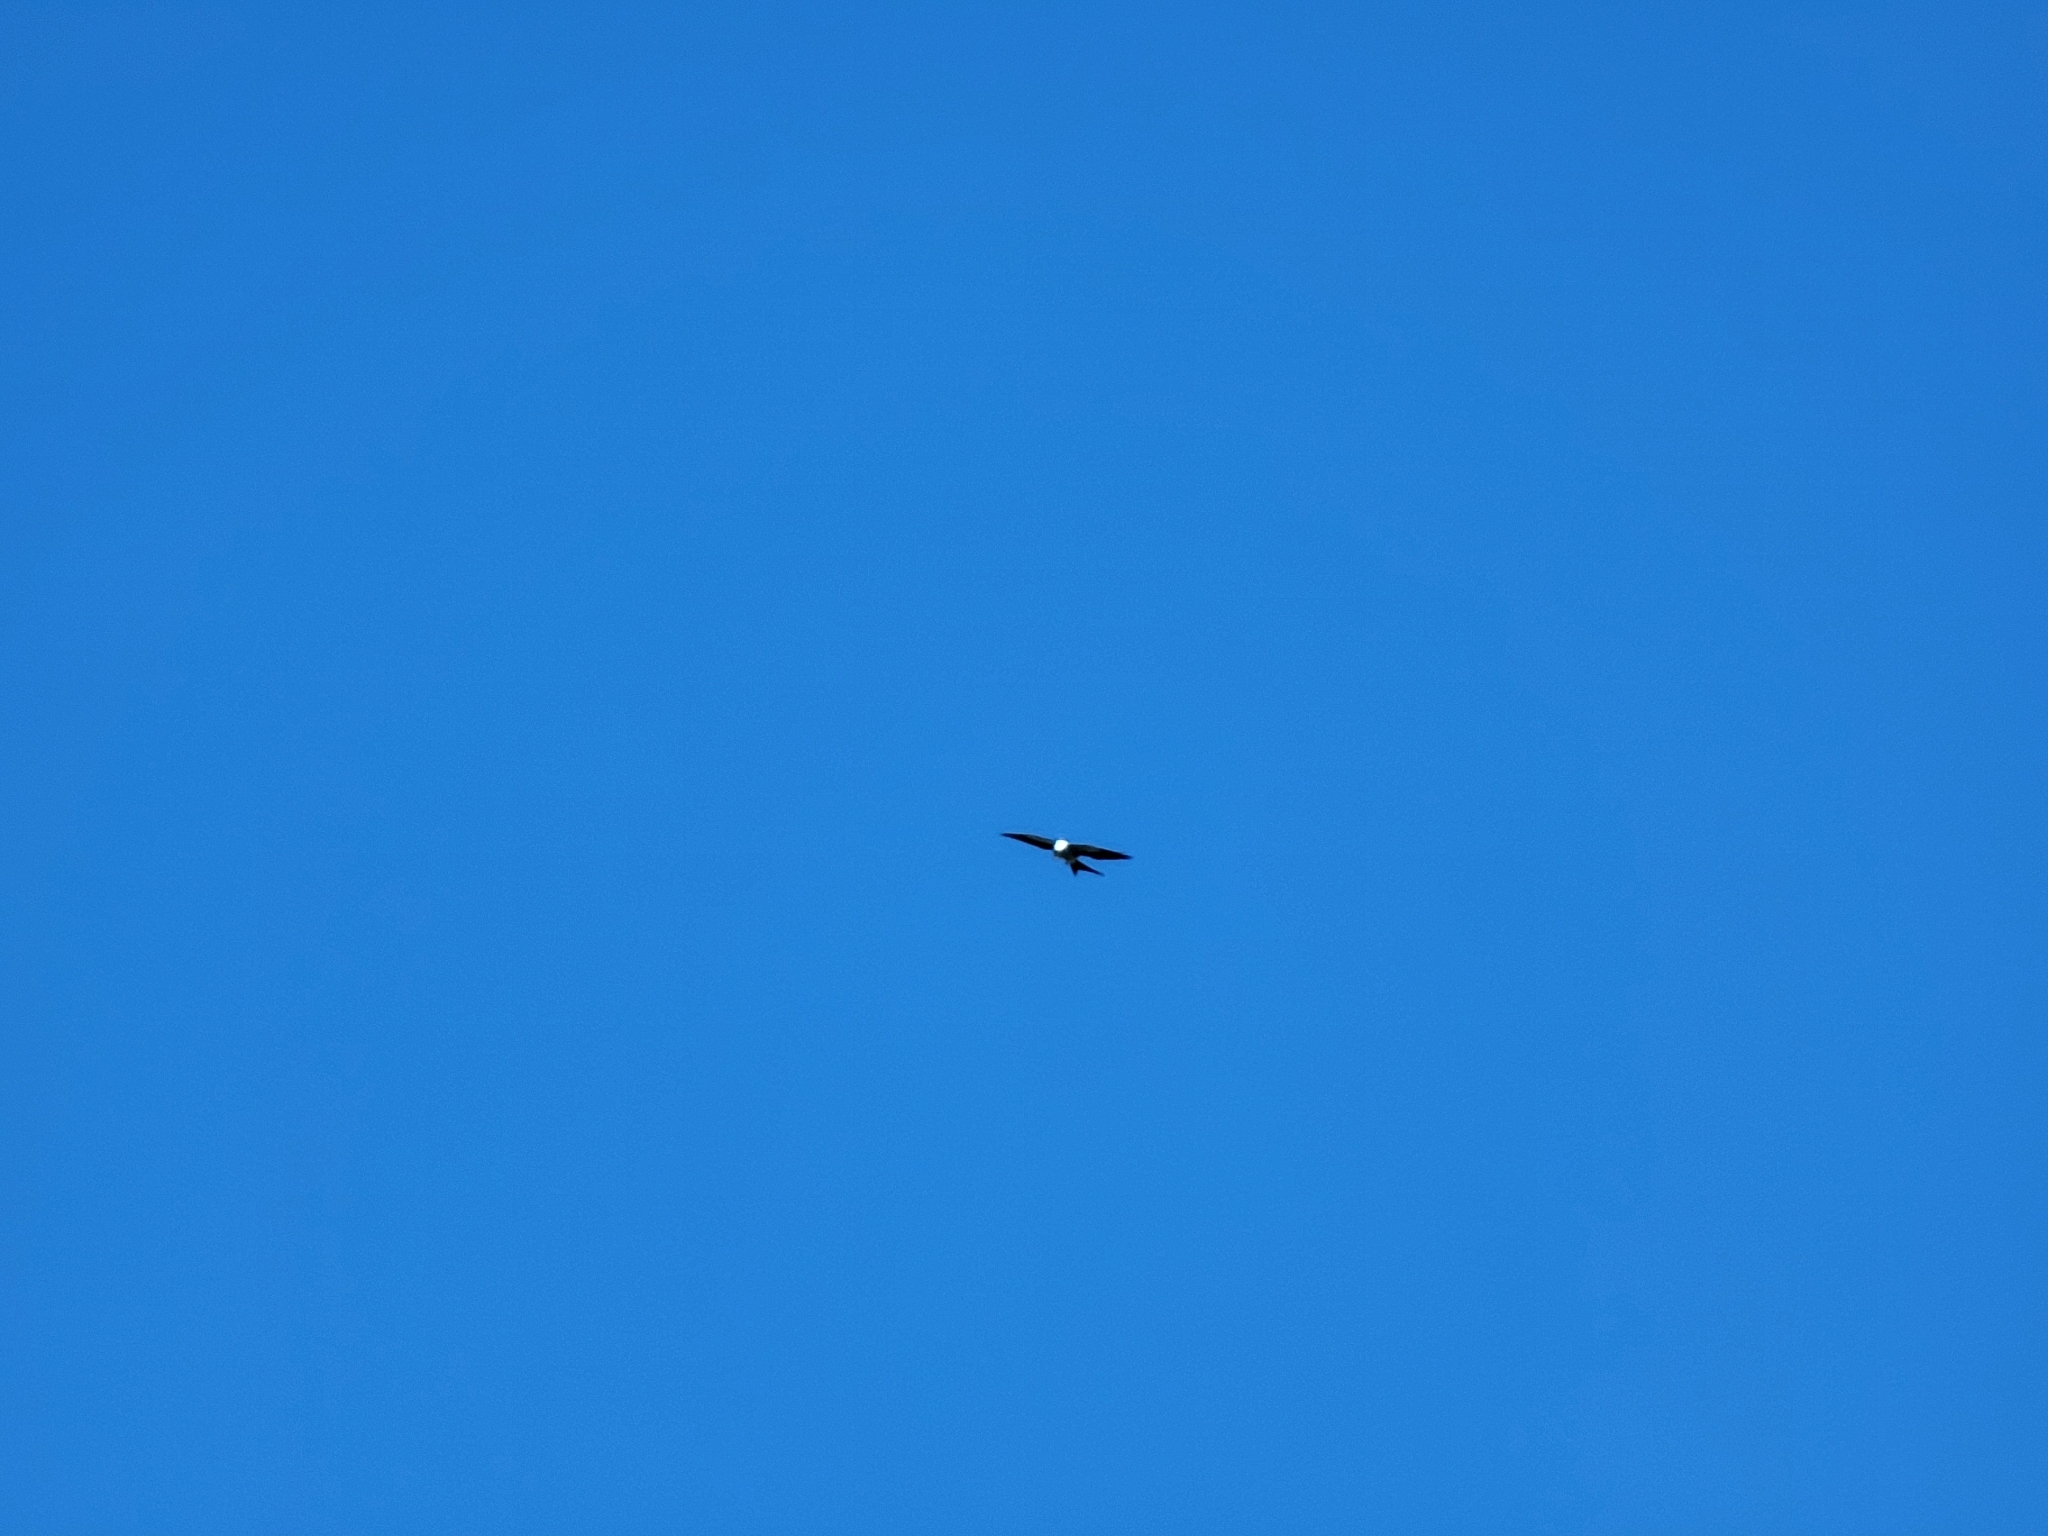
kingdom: Animalia
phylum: Chordata
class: Aves
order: Accipitriformes
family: Accipitridae
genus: Elanoides
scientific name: Elanoides forficatus
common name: Swallow-tailed kite
